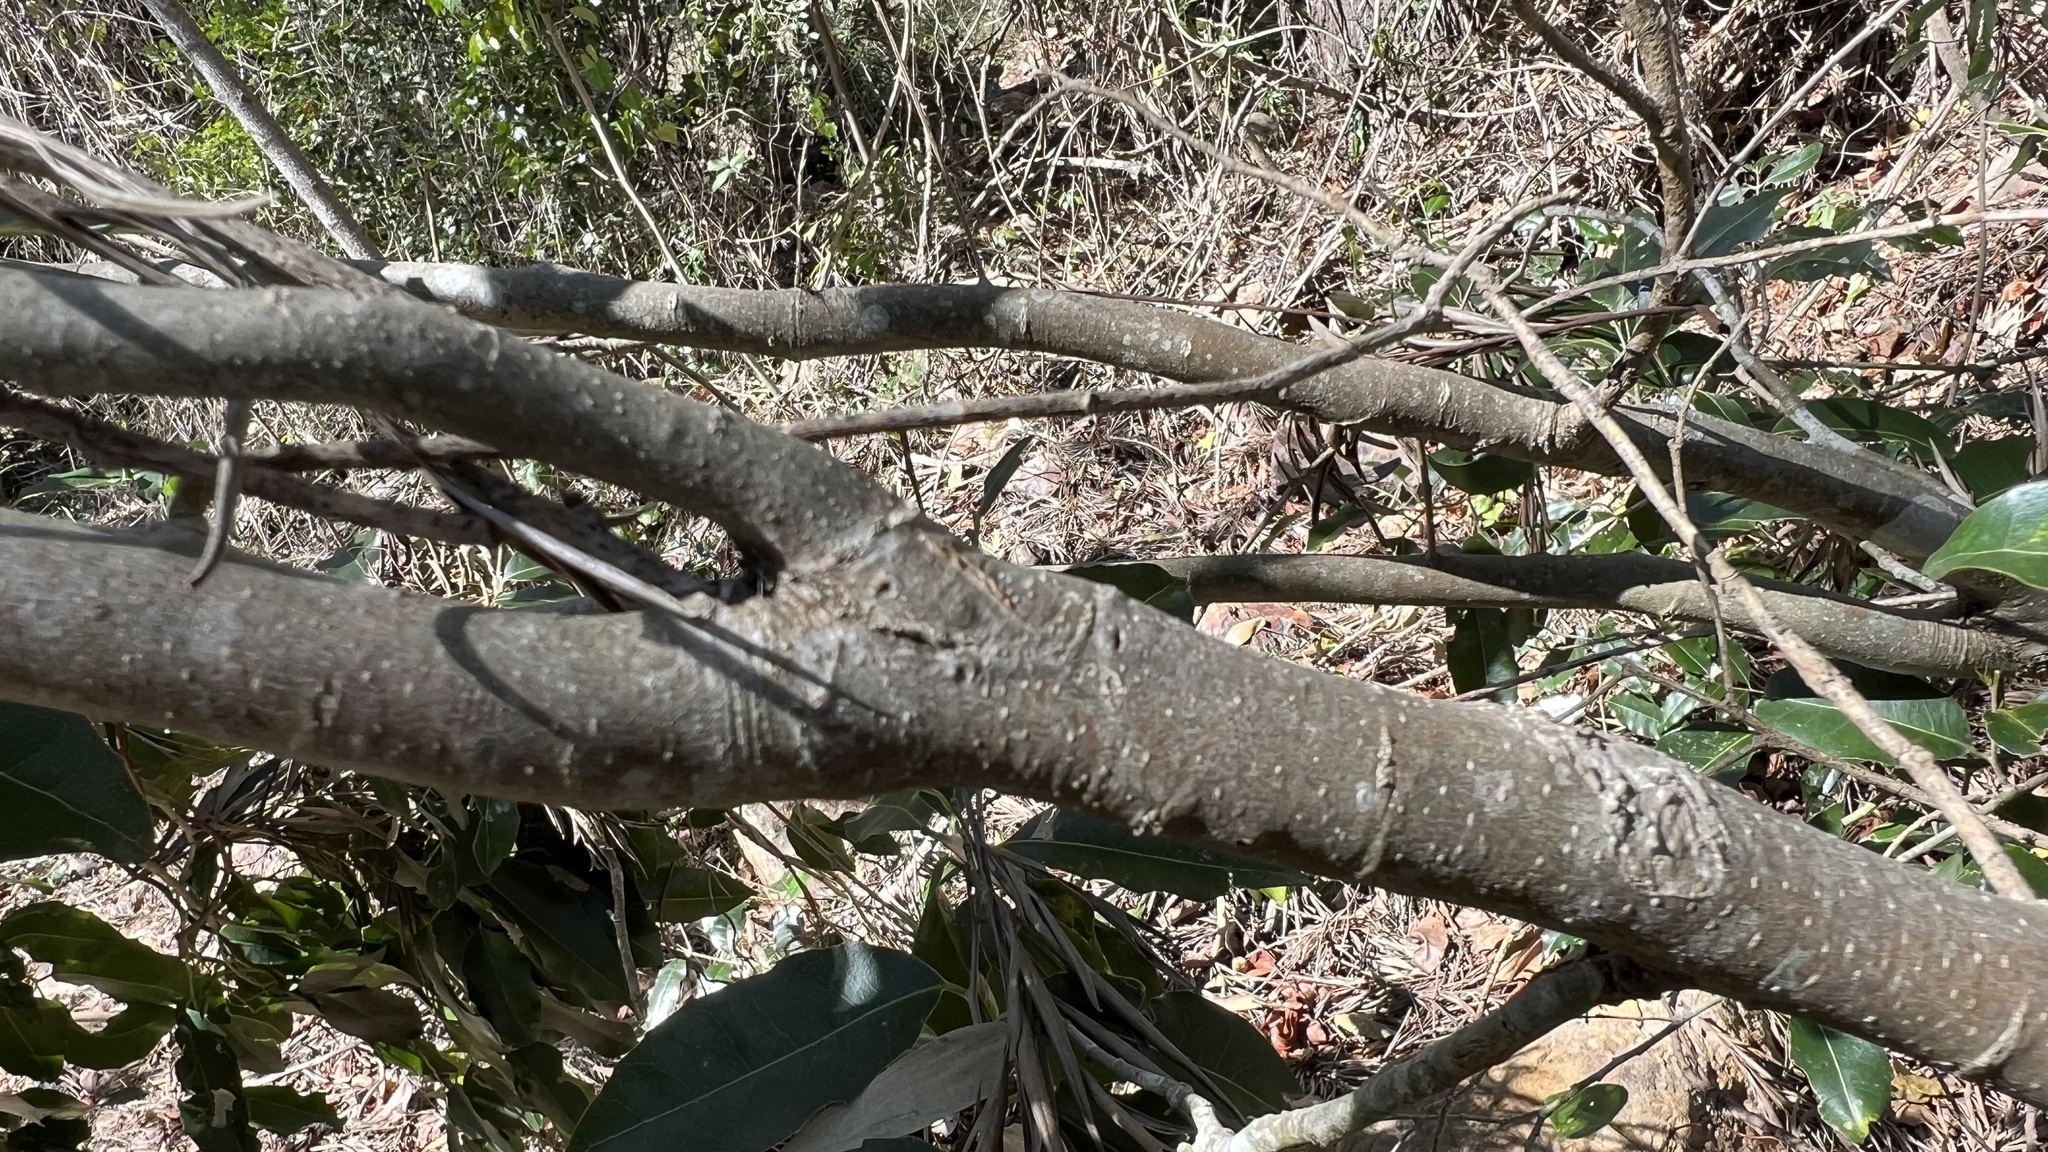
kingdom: Plantae
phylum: Tracheophyta
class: Magnoliopsida
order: Malpighiales
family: Putranjivaceae
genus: Drypetes
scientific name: Drypetes deplanchei
